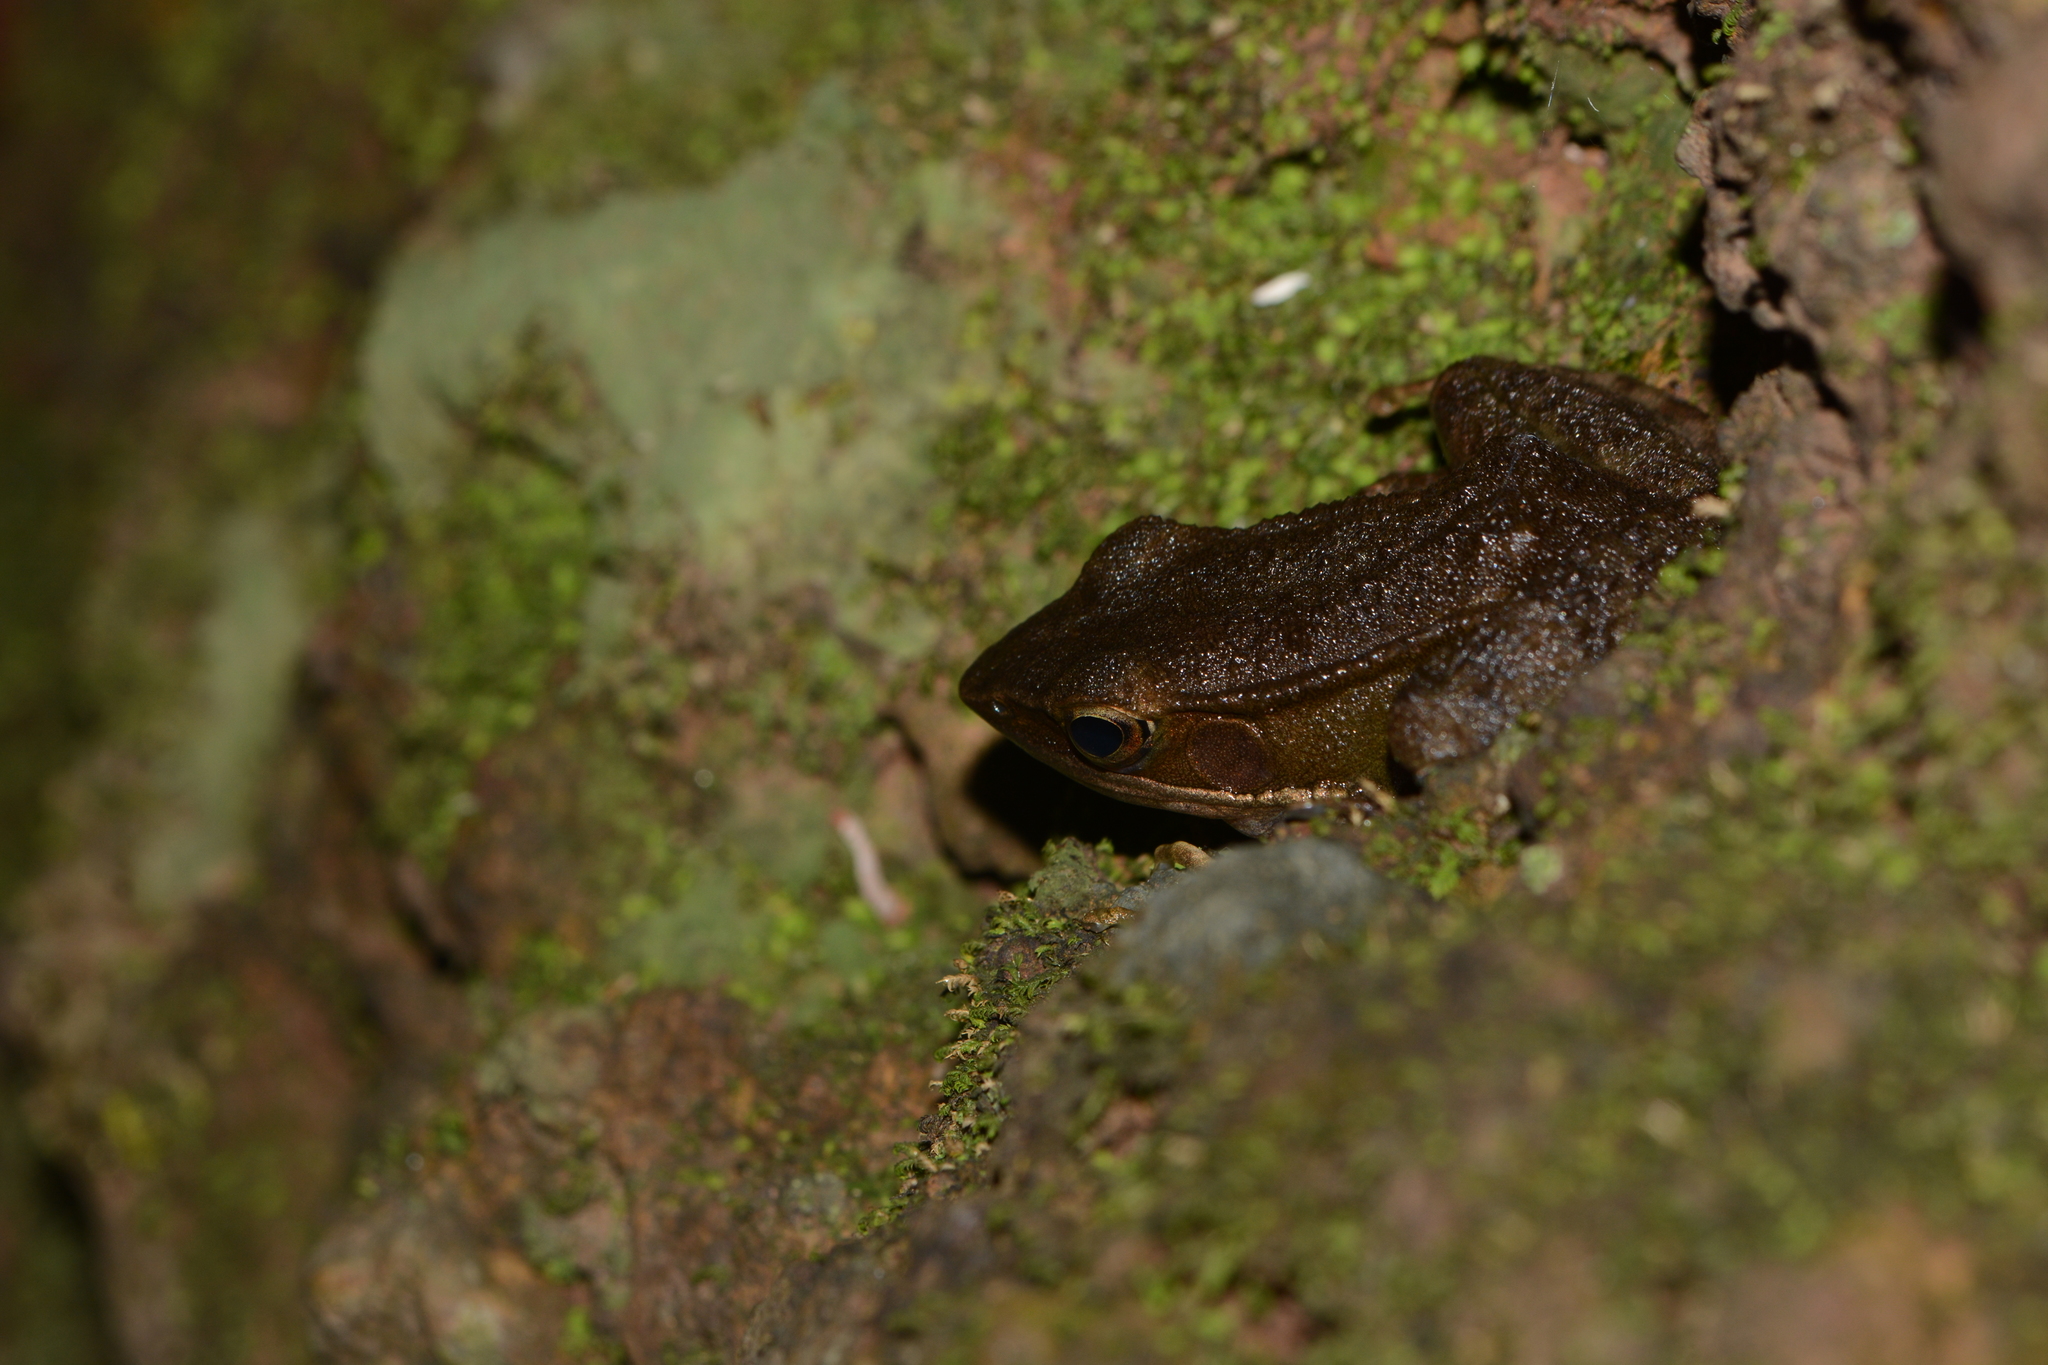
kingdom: Animalia
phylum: Chordata
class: Amphibia
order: Anura
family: Ranidae
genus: Indosylvirana
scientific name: Indosylvirana caesari
